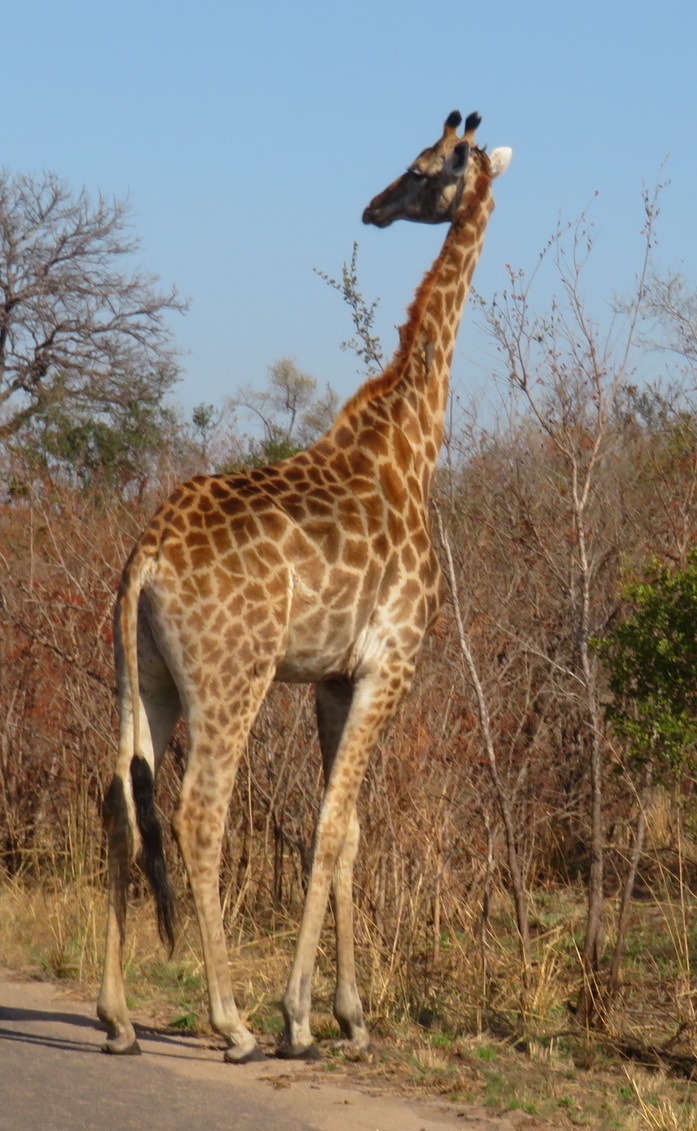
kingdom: Animalia
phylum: Chordata
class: Mammalia
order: Artiodactyla
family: Giraffidae
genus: Giraffa
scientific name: Giraffa giraffa
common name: Southern giraffe
